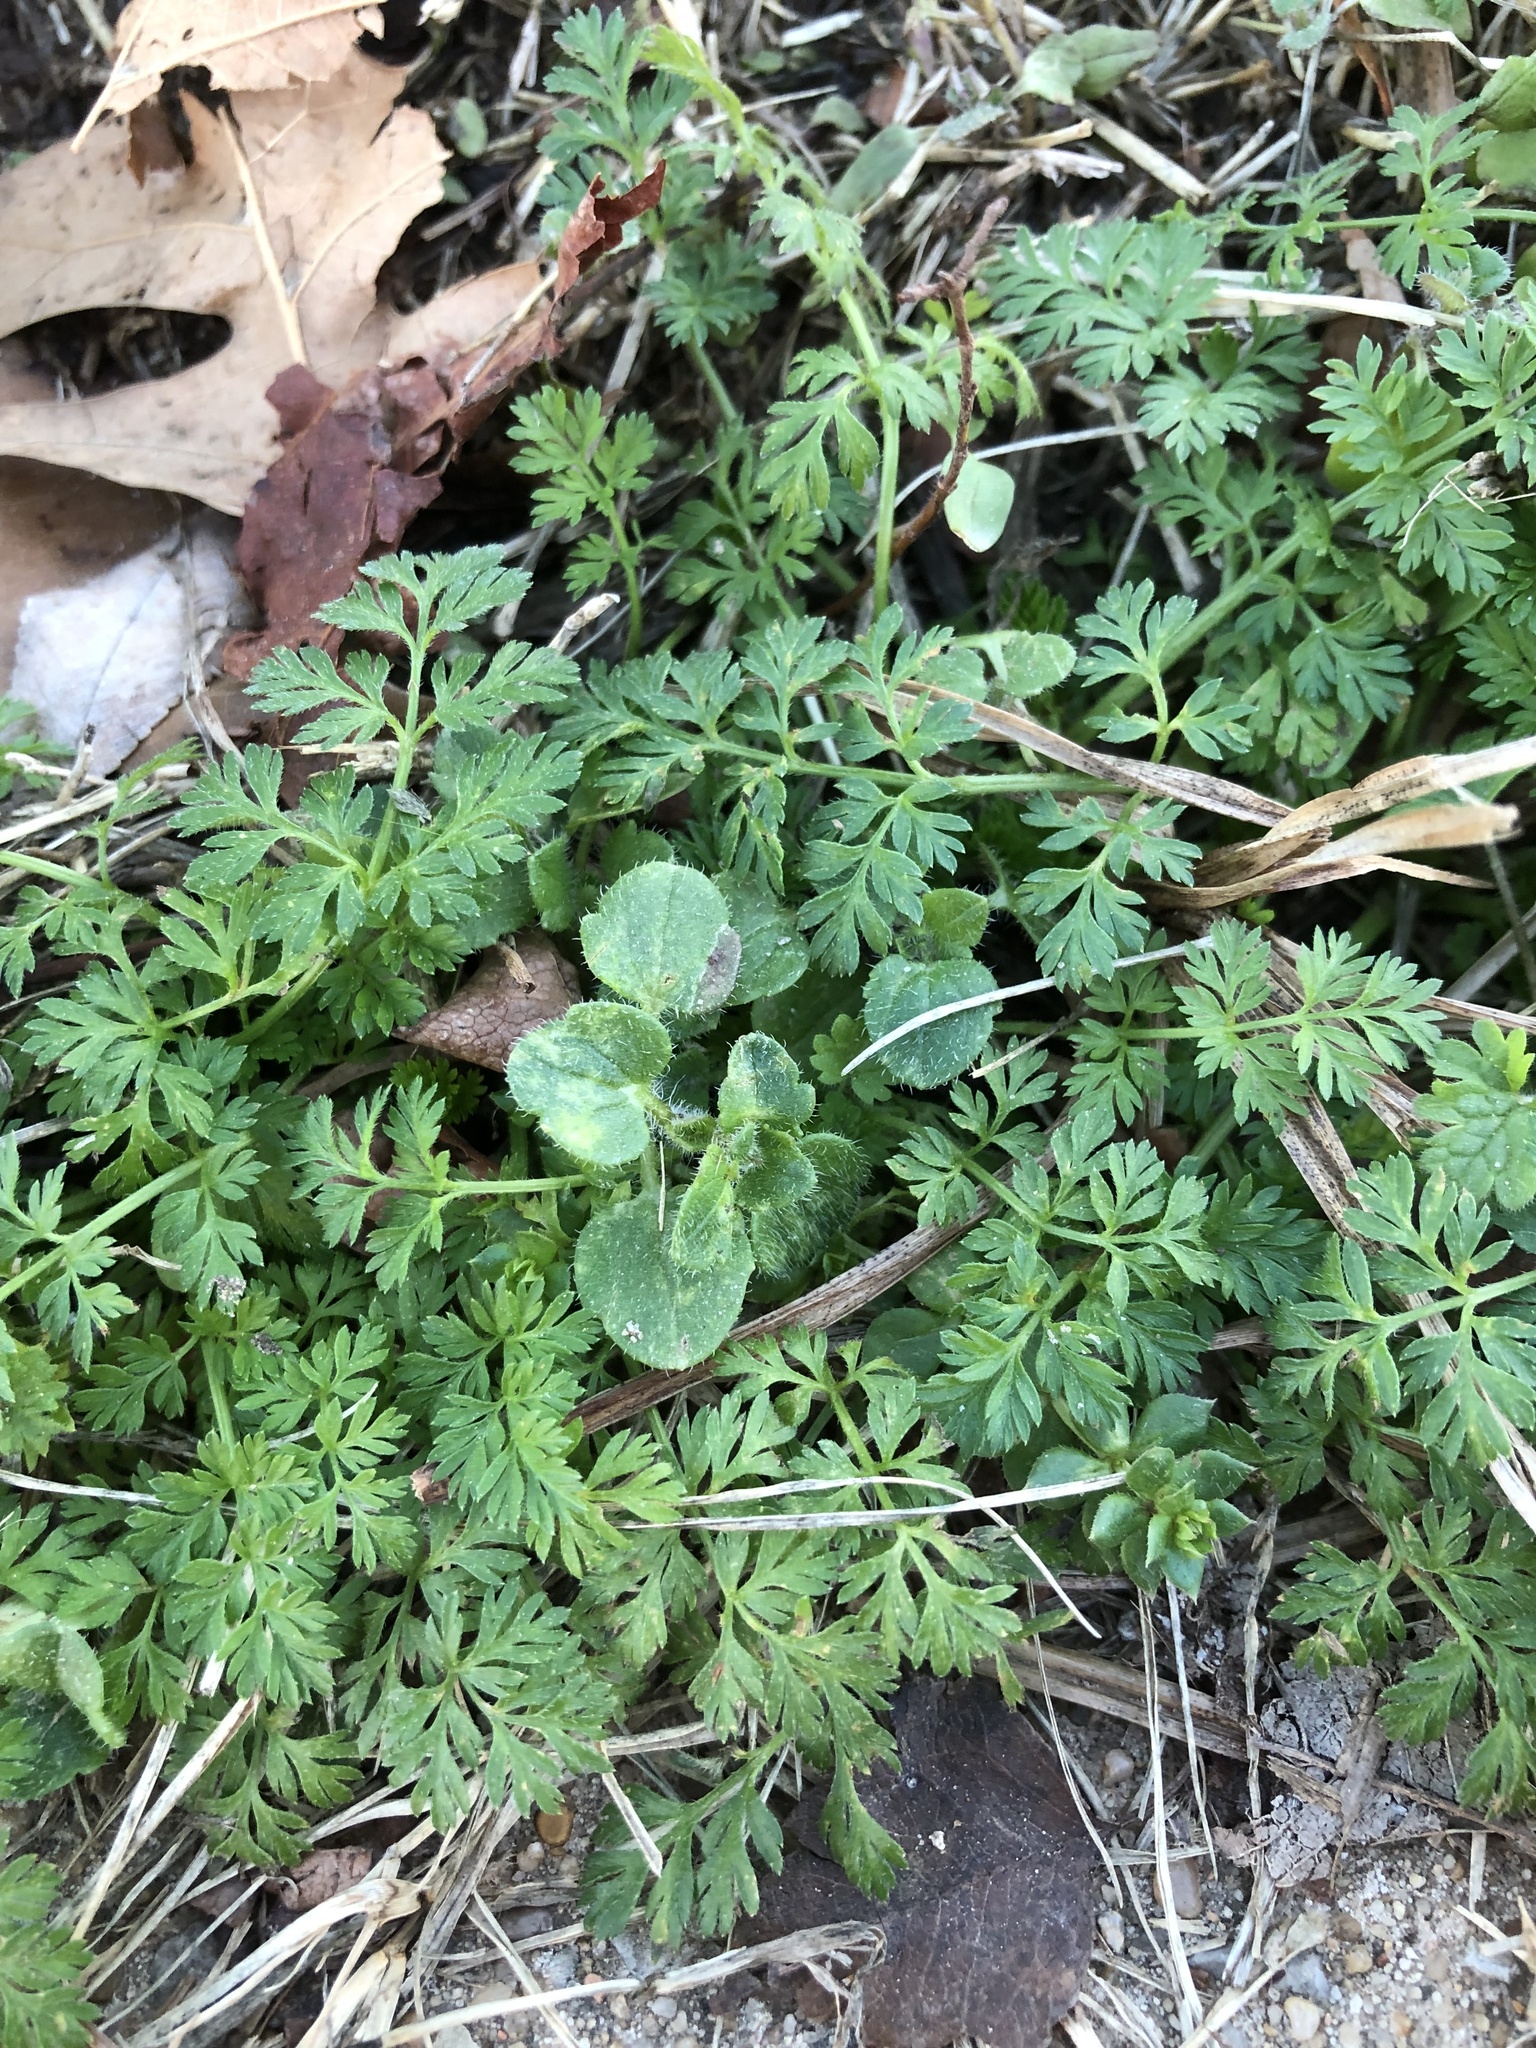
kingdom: Plantae
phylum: Tracheophyta
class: Magnoliopsida
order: Lamiales
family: Plantaginaceae
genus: Veronica
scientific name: Veronica hederifolia
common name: Ivy-leaved speedwell
